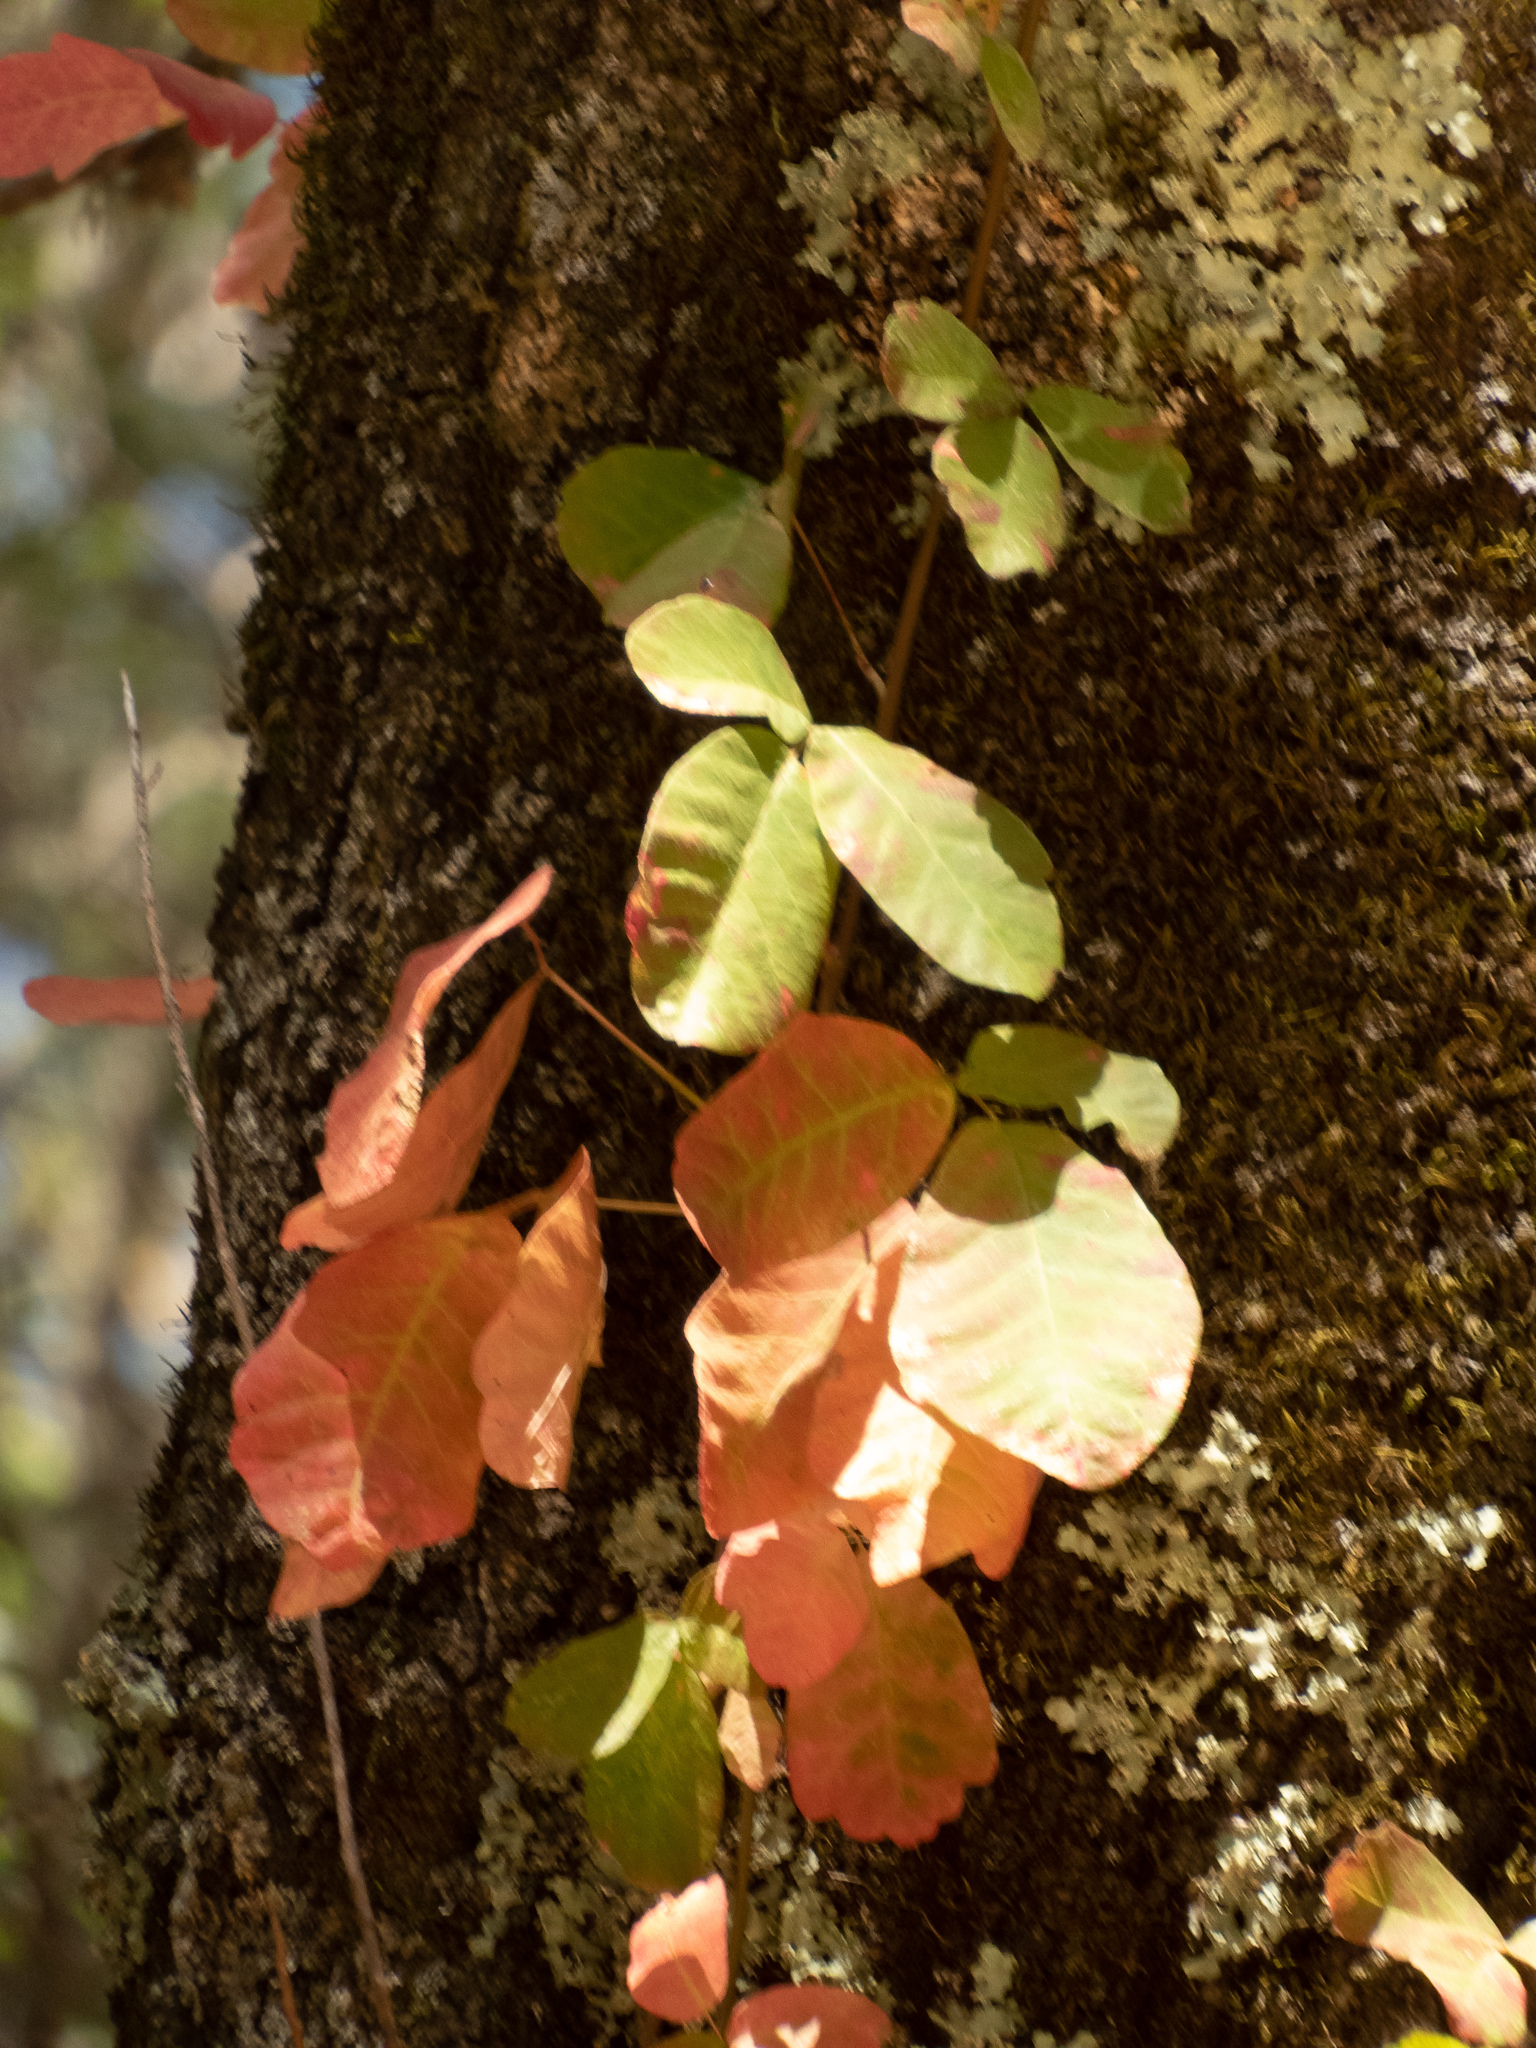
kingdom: Plantae
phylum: Tracheophyta
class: Magnoliopsida
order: Sapindales
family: Anacardiaceae
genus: Toxicodendron
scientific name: Toxicodendron diversilobum
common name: Pacific poison-oak
